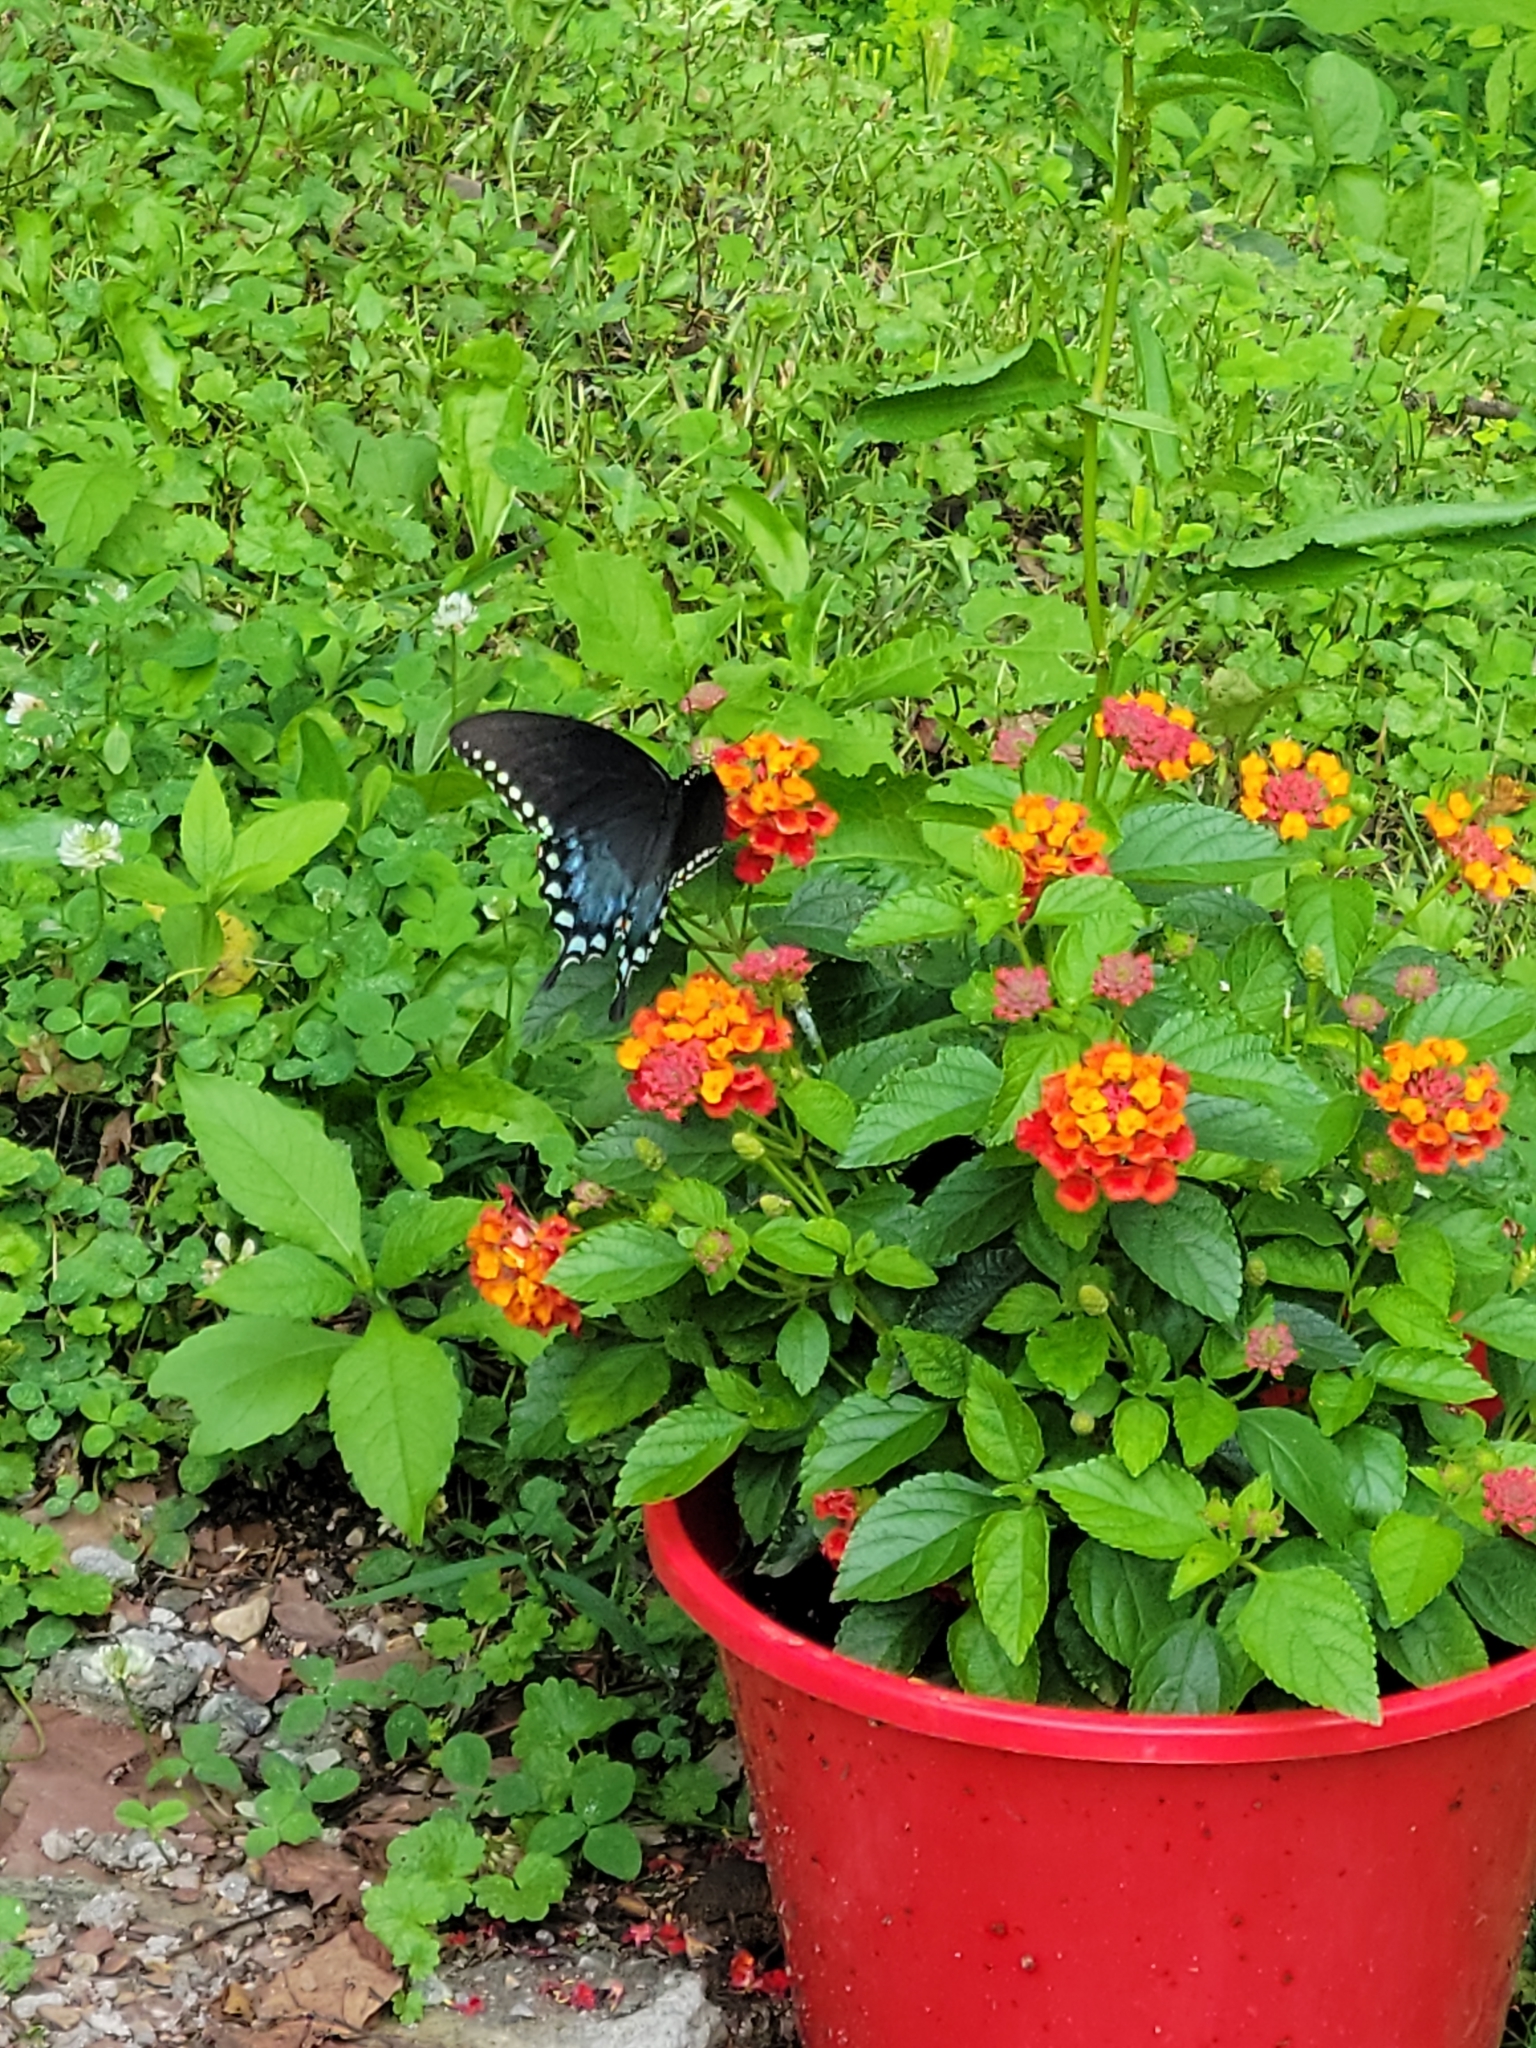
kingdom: Animalia
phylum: Arthropoda
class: Insecta
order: Lepidoptera
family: Papilionidae
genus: Papilio
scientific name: Papilio troilus
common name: Spicebush swallowtail
